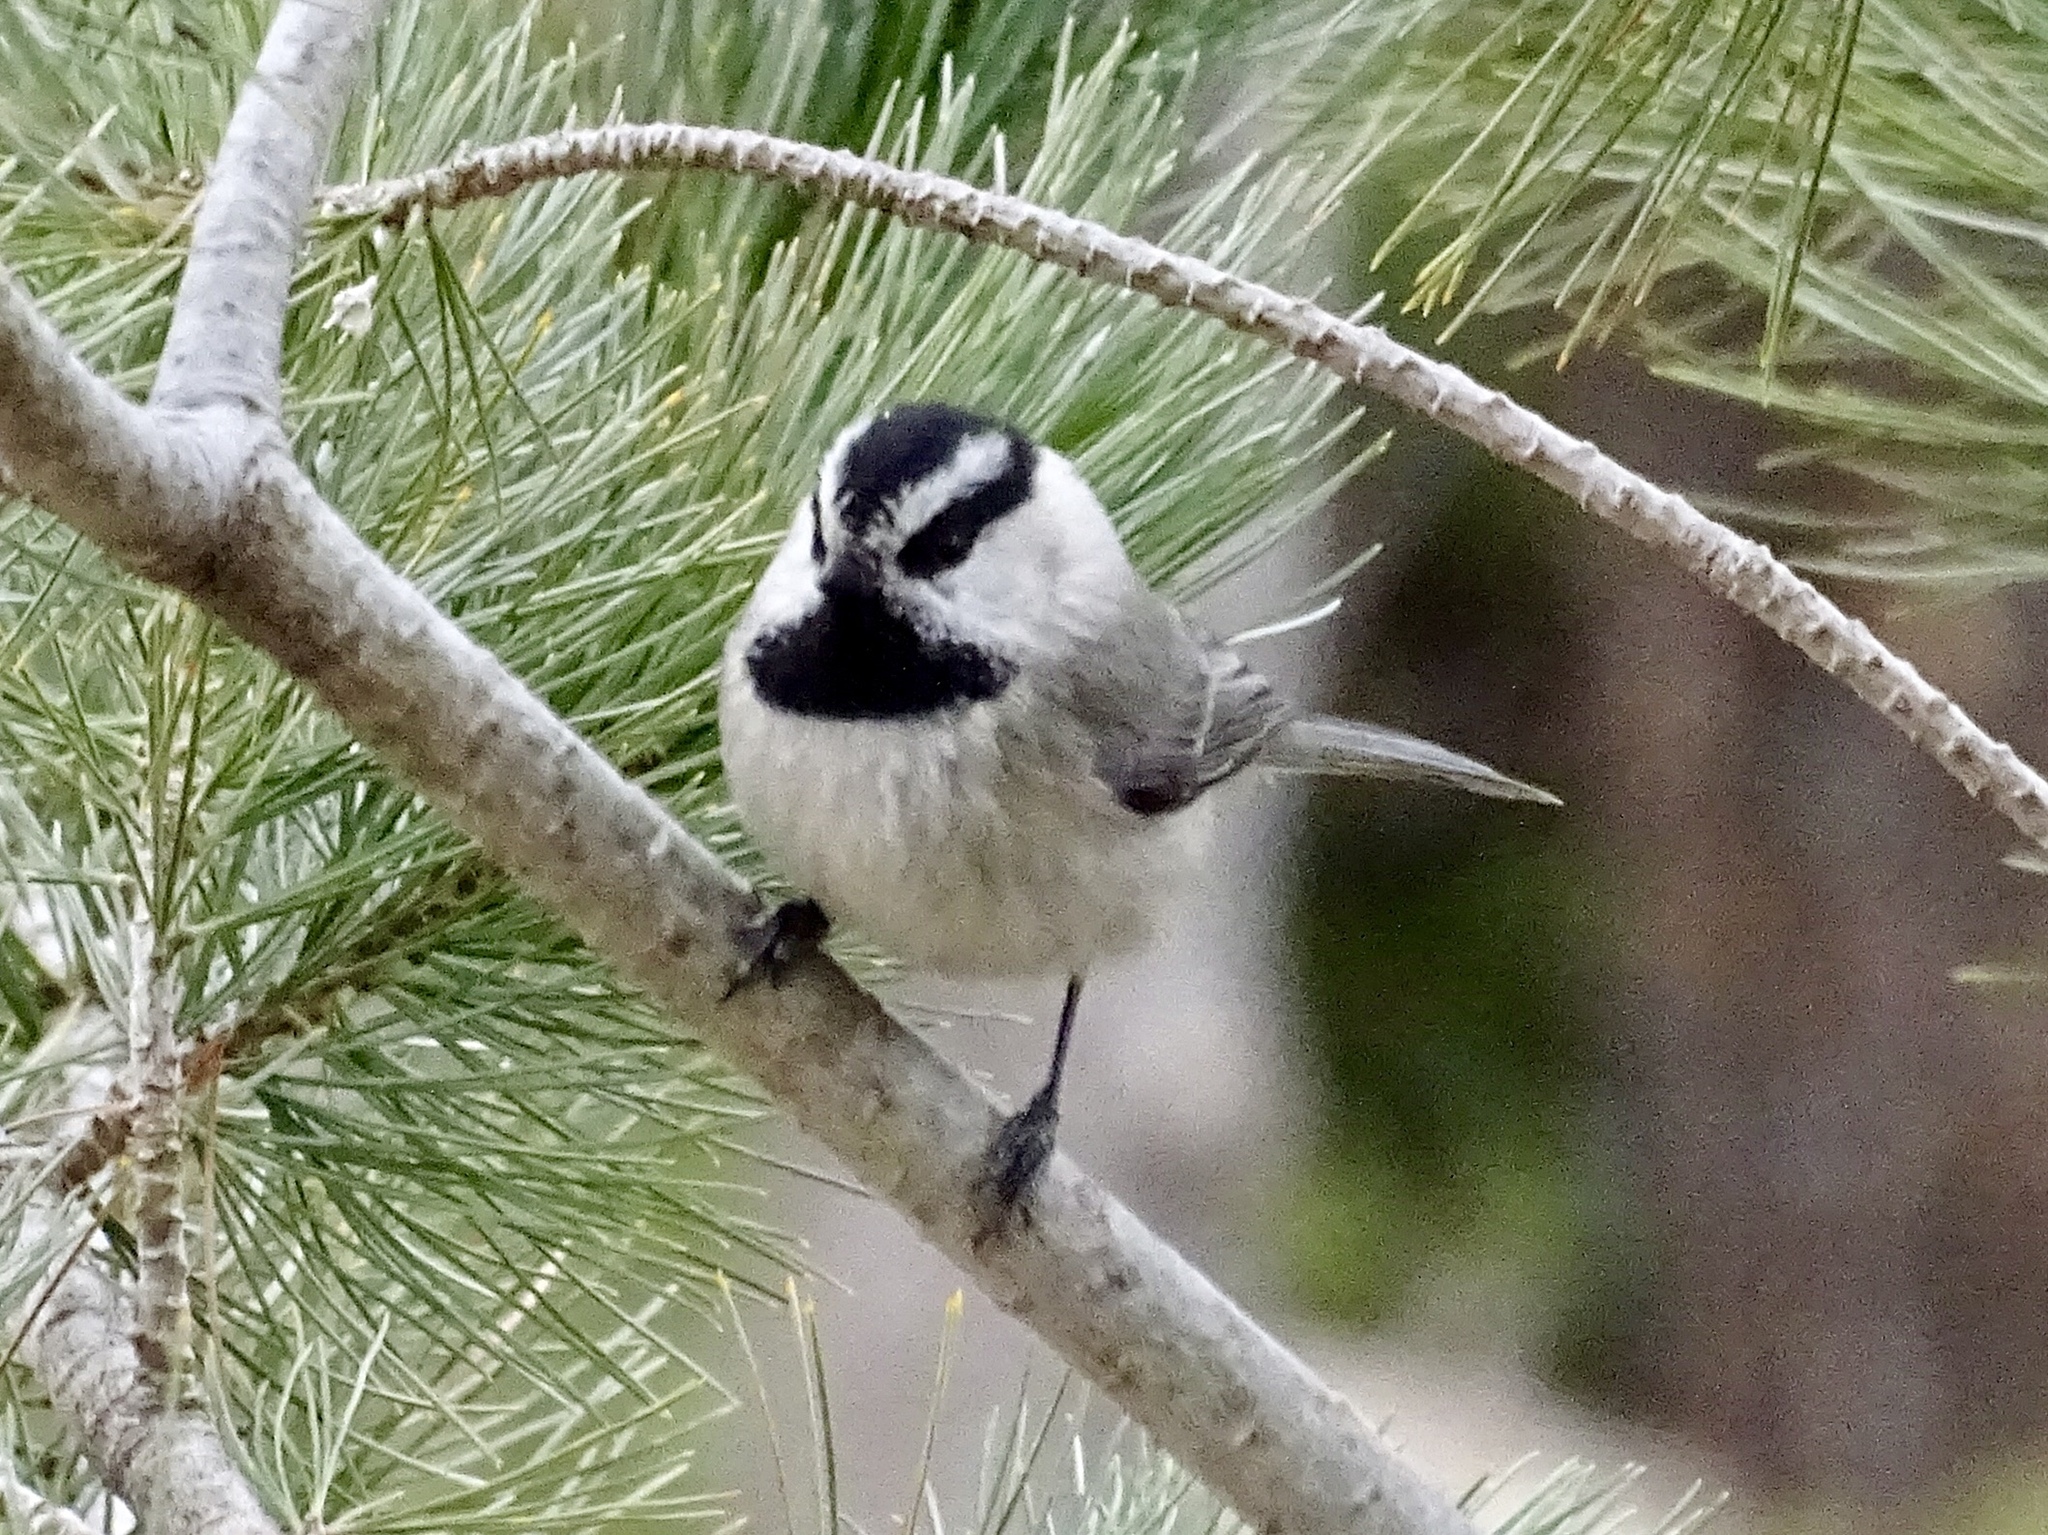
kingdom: Animalia
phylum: Chordata
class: Aves
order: Passeriformes
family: Paridae
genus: Poecile
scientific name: Poecile gambeli
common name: Mountain chickadee
